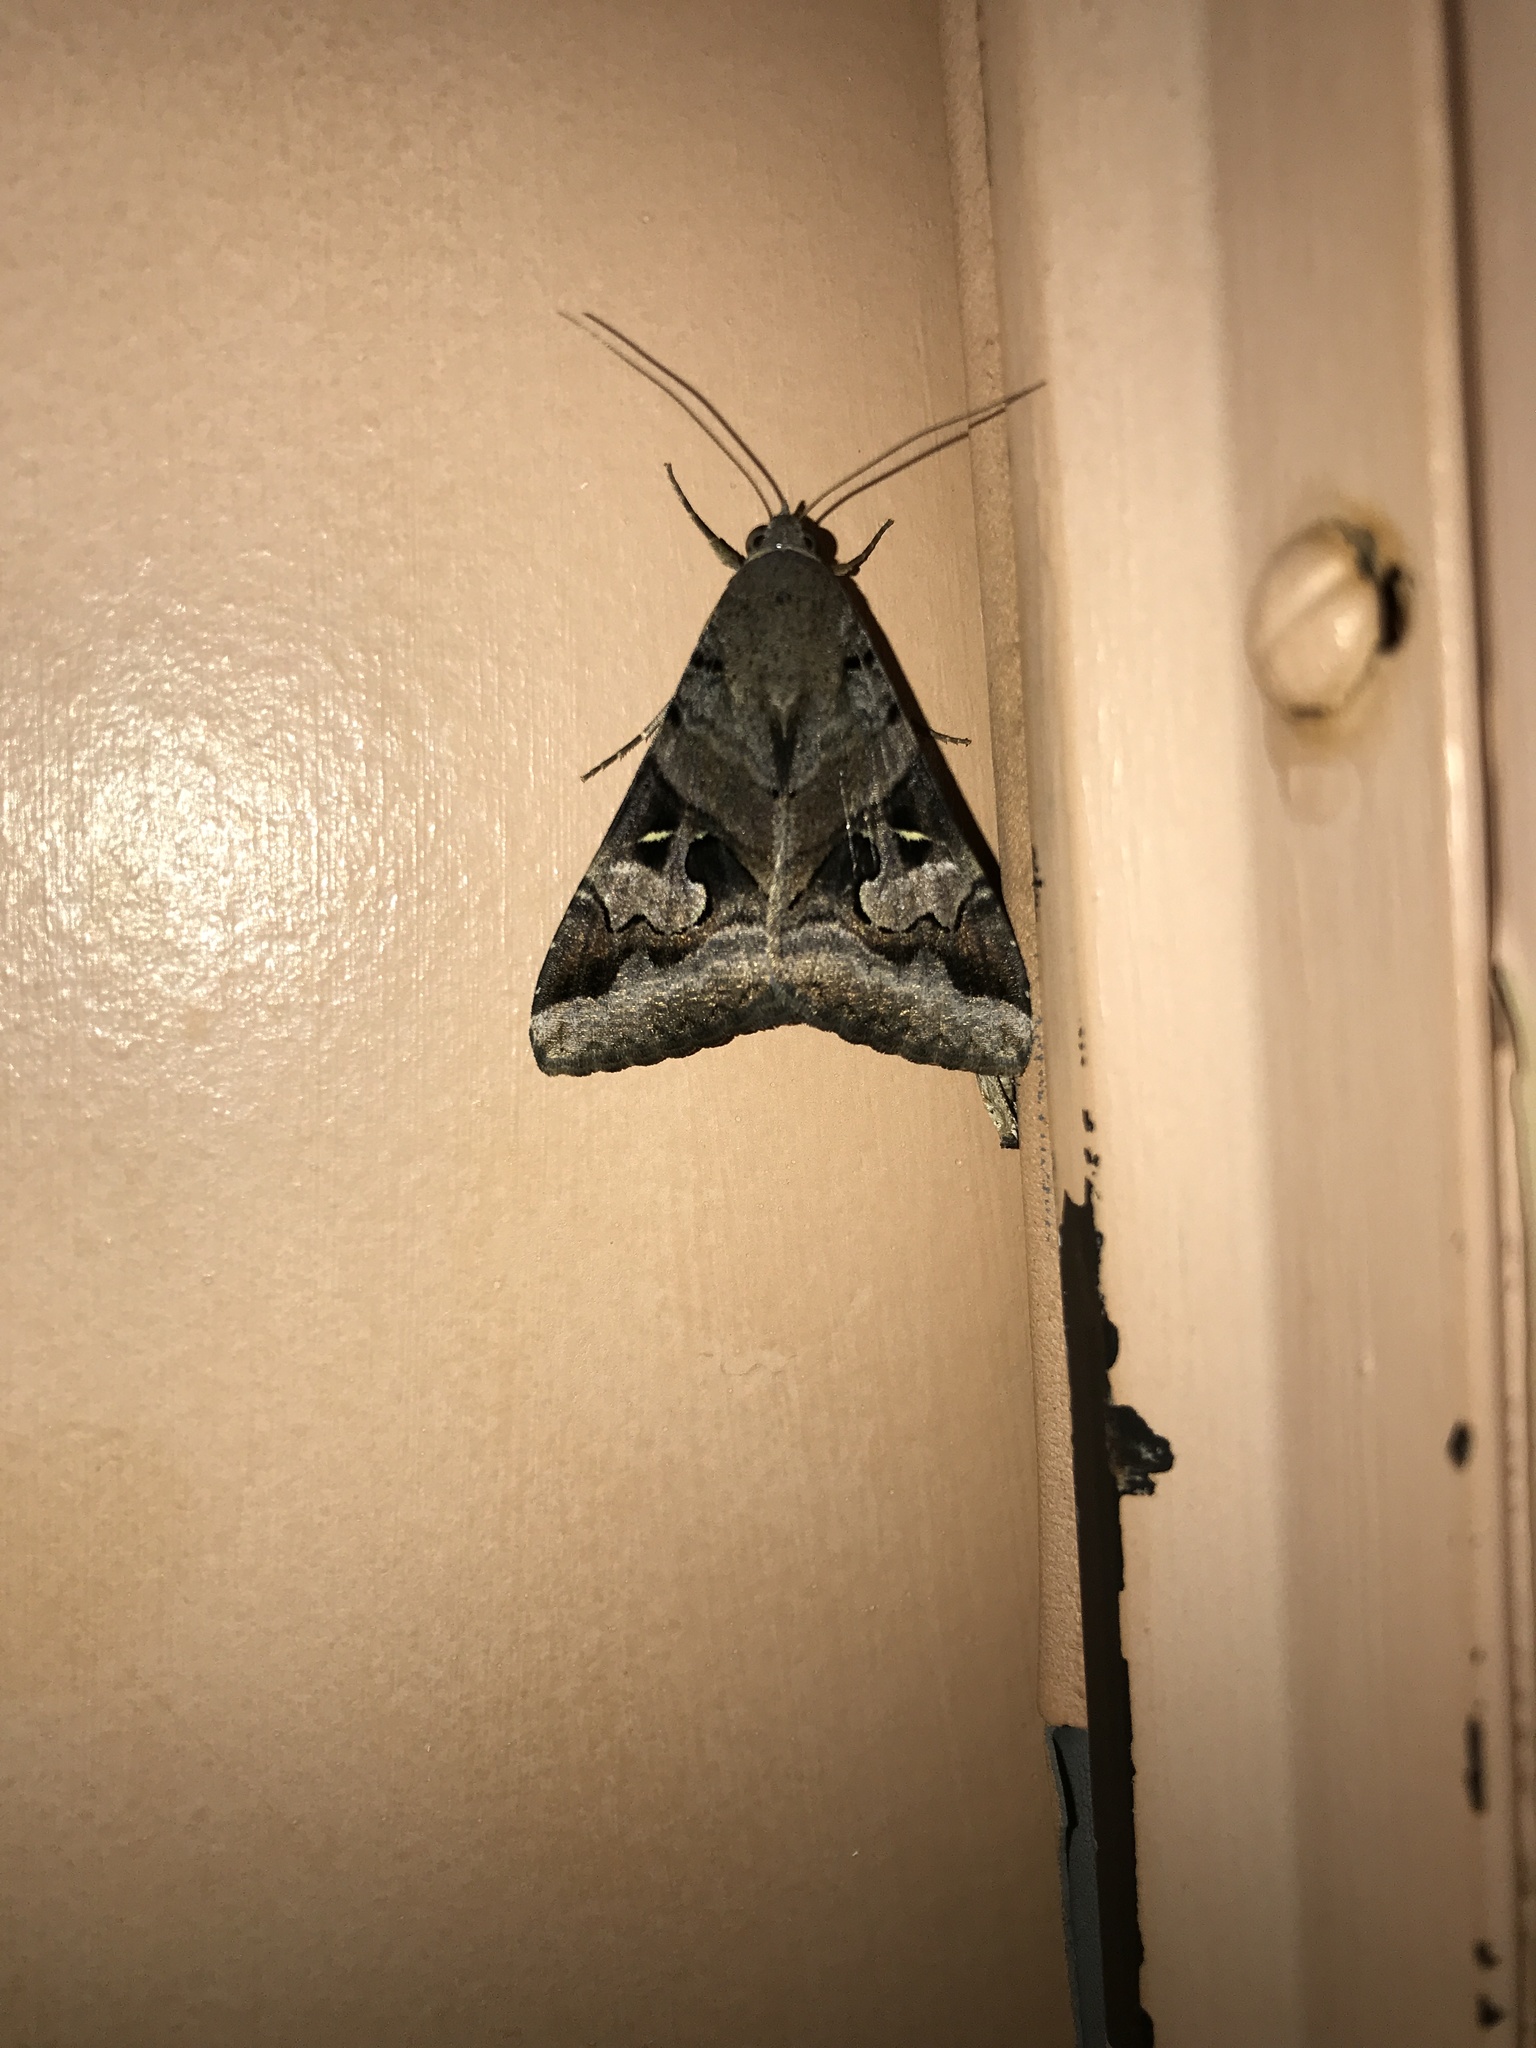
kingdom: Animalia
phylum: Arthropoda
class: Insecta
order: Lepidoptera
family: Erebidae
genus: Melipotis
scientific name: Melipotis indomita
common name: Moth
